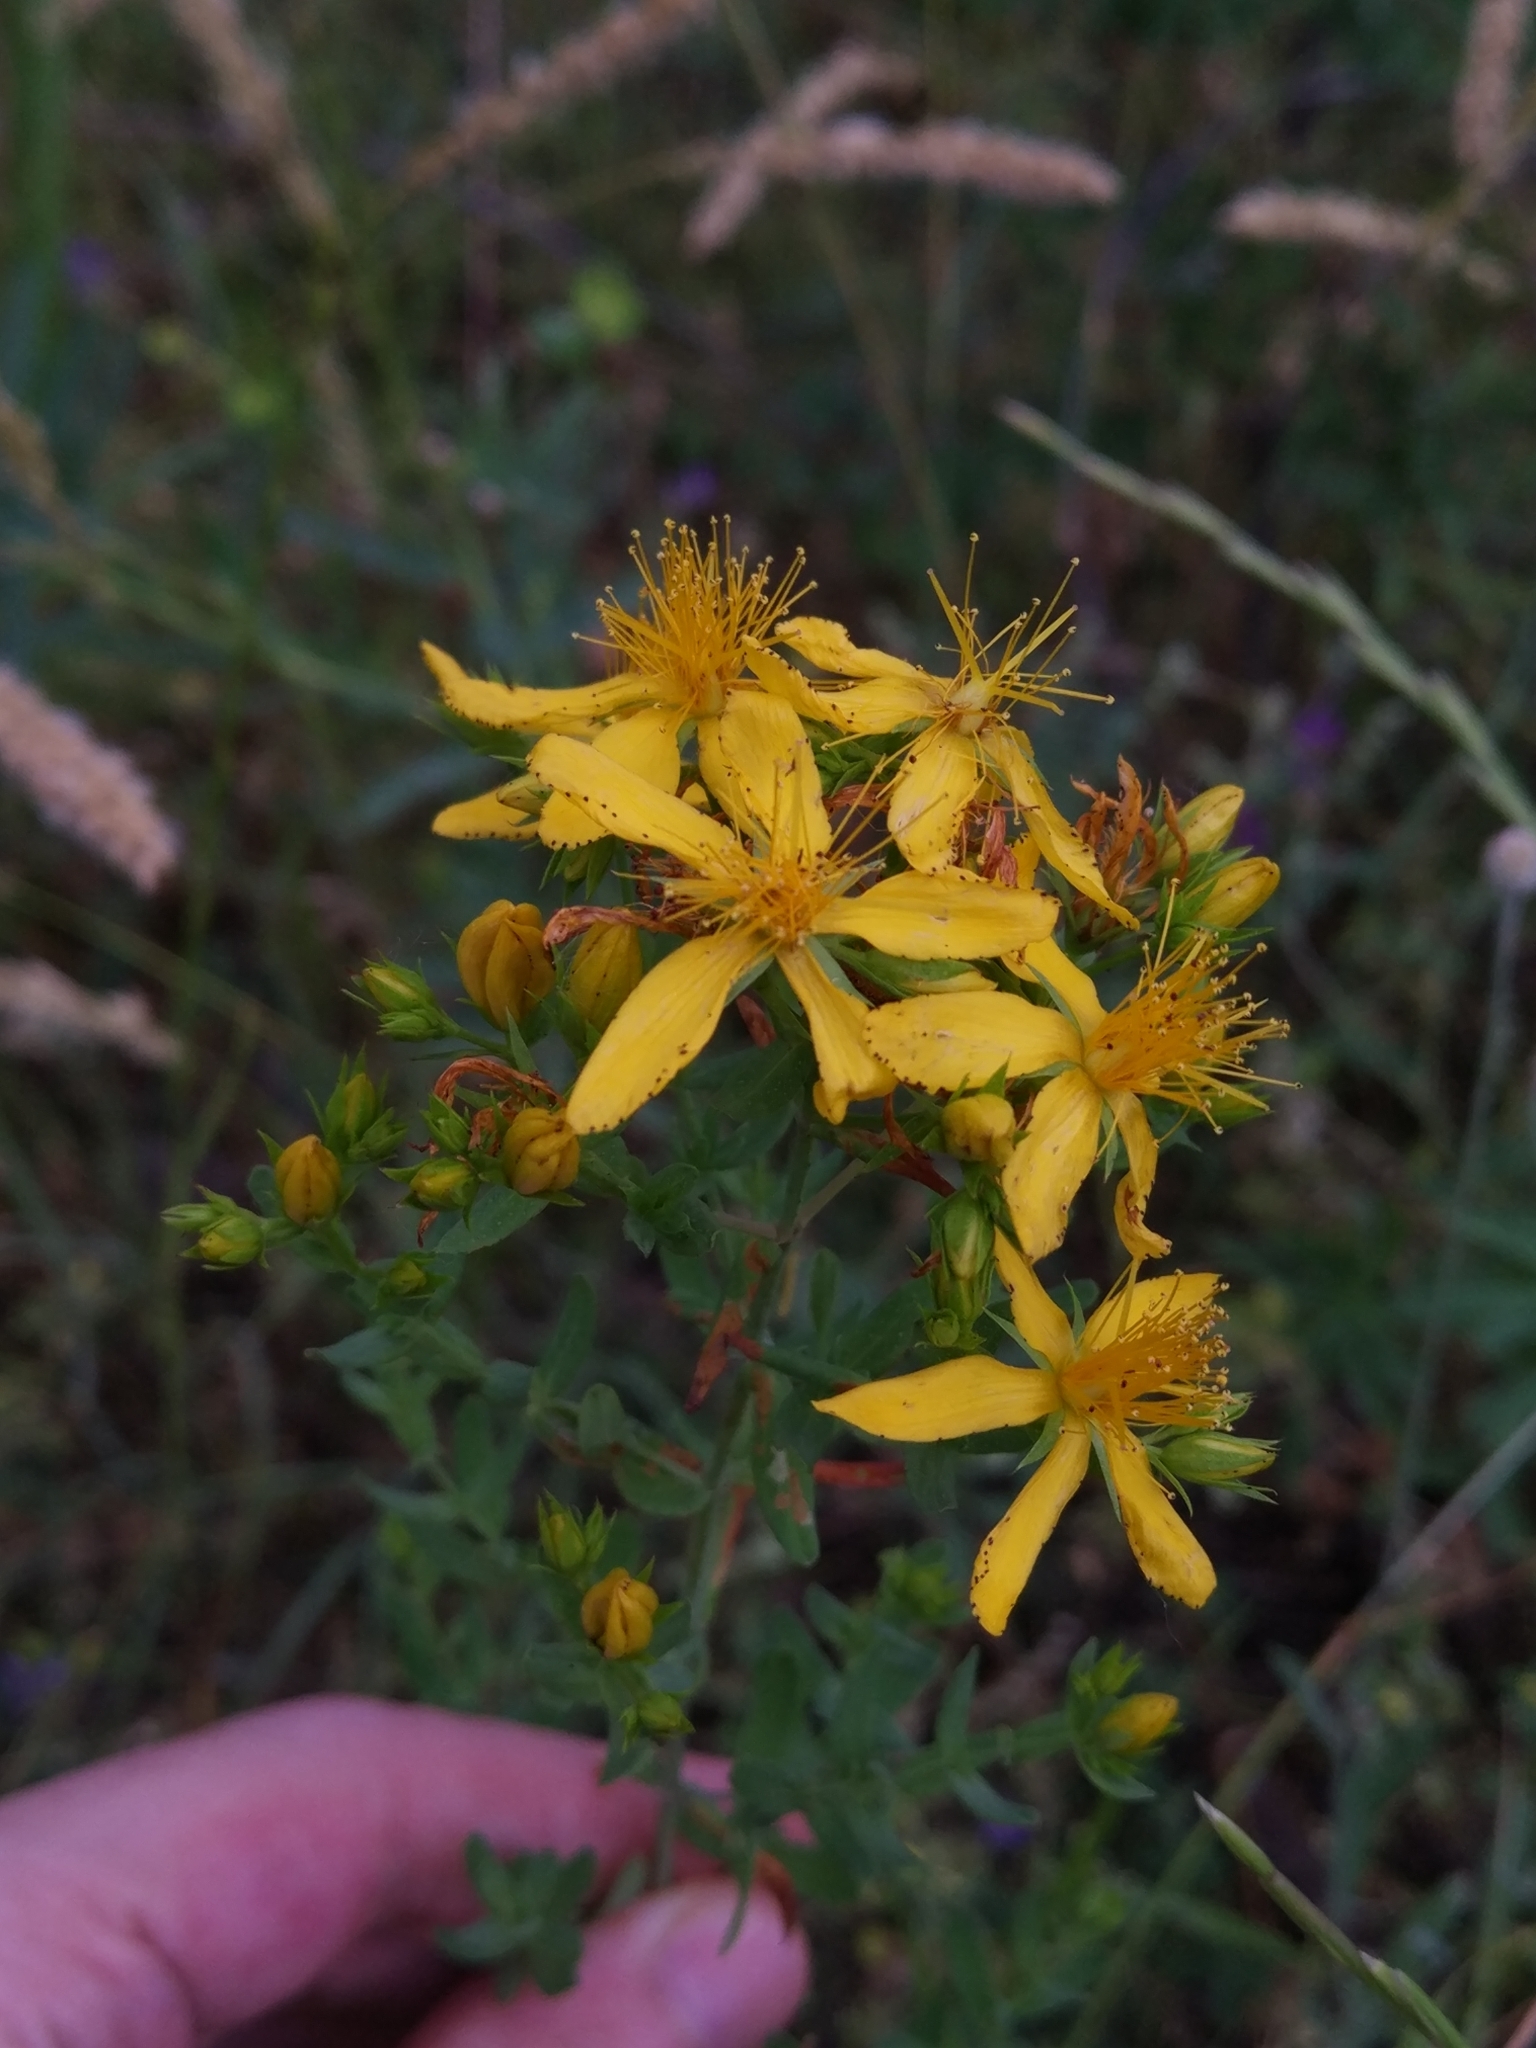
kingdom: Plantae
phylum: Tracheophyta
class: Magnoliopsida
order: Malpighiales
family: Hypericaceae
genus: Hypericum
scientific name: Hypericum perforatum
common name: Common st. johnswort
